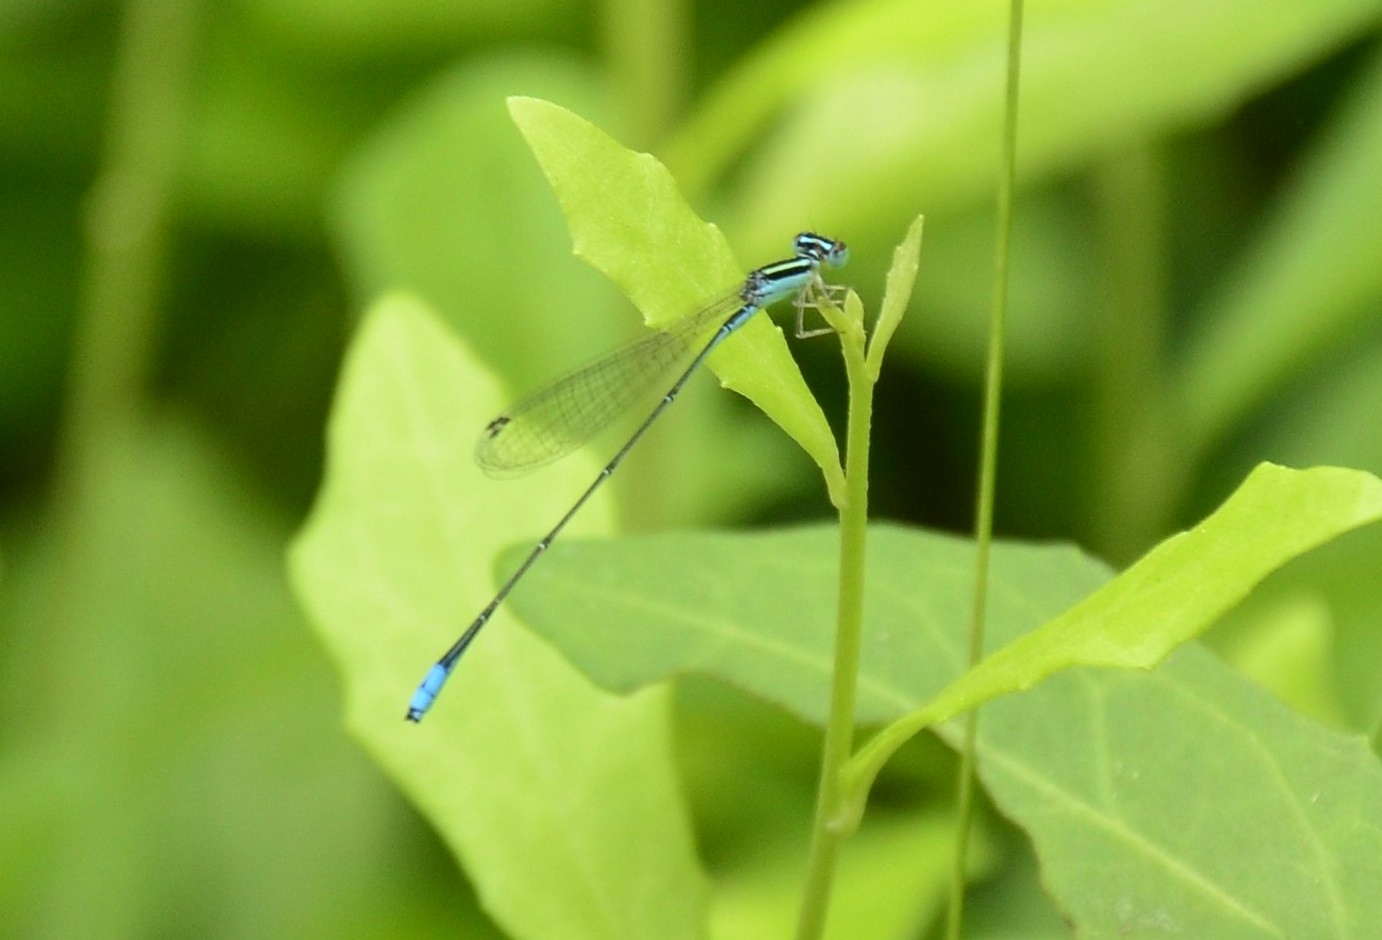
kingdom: Animalia
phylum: Arthropoda
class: Insecta
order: Odonata
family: Coenagrionidae
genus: Aciagrion
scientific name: Aciagrion occidentale
